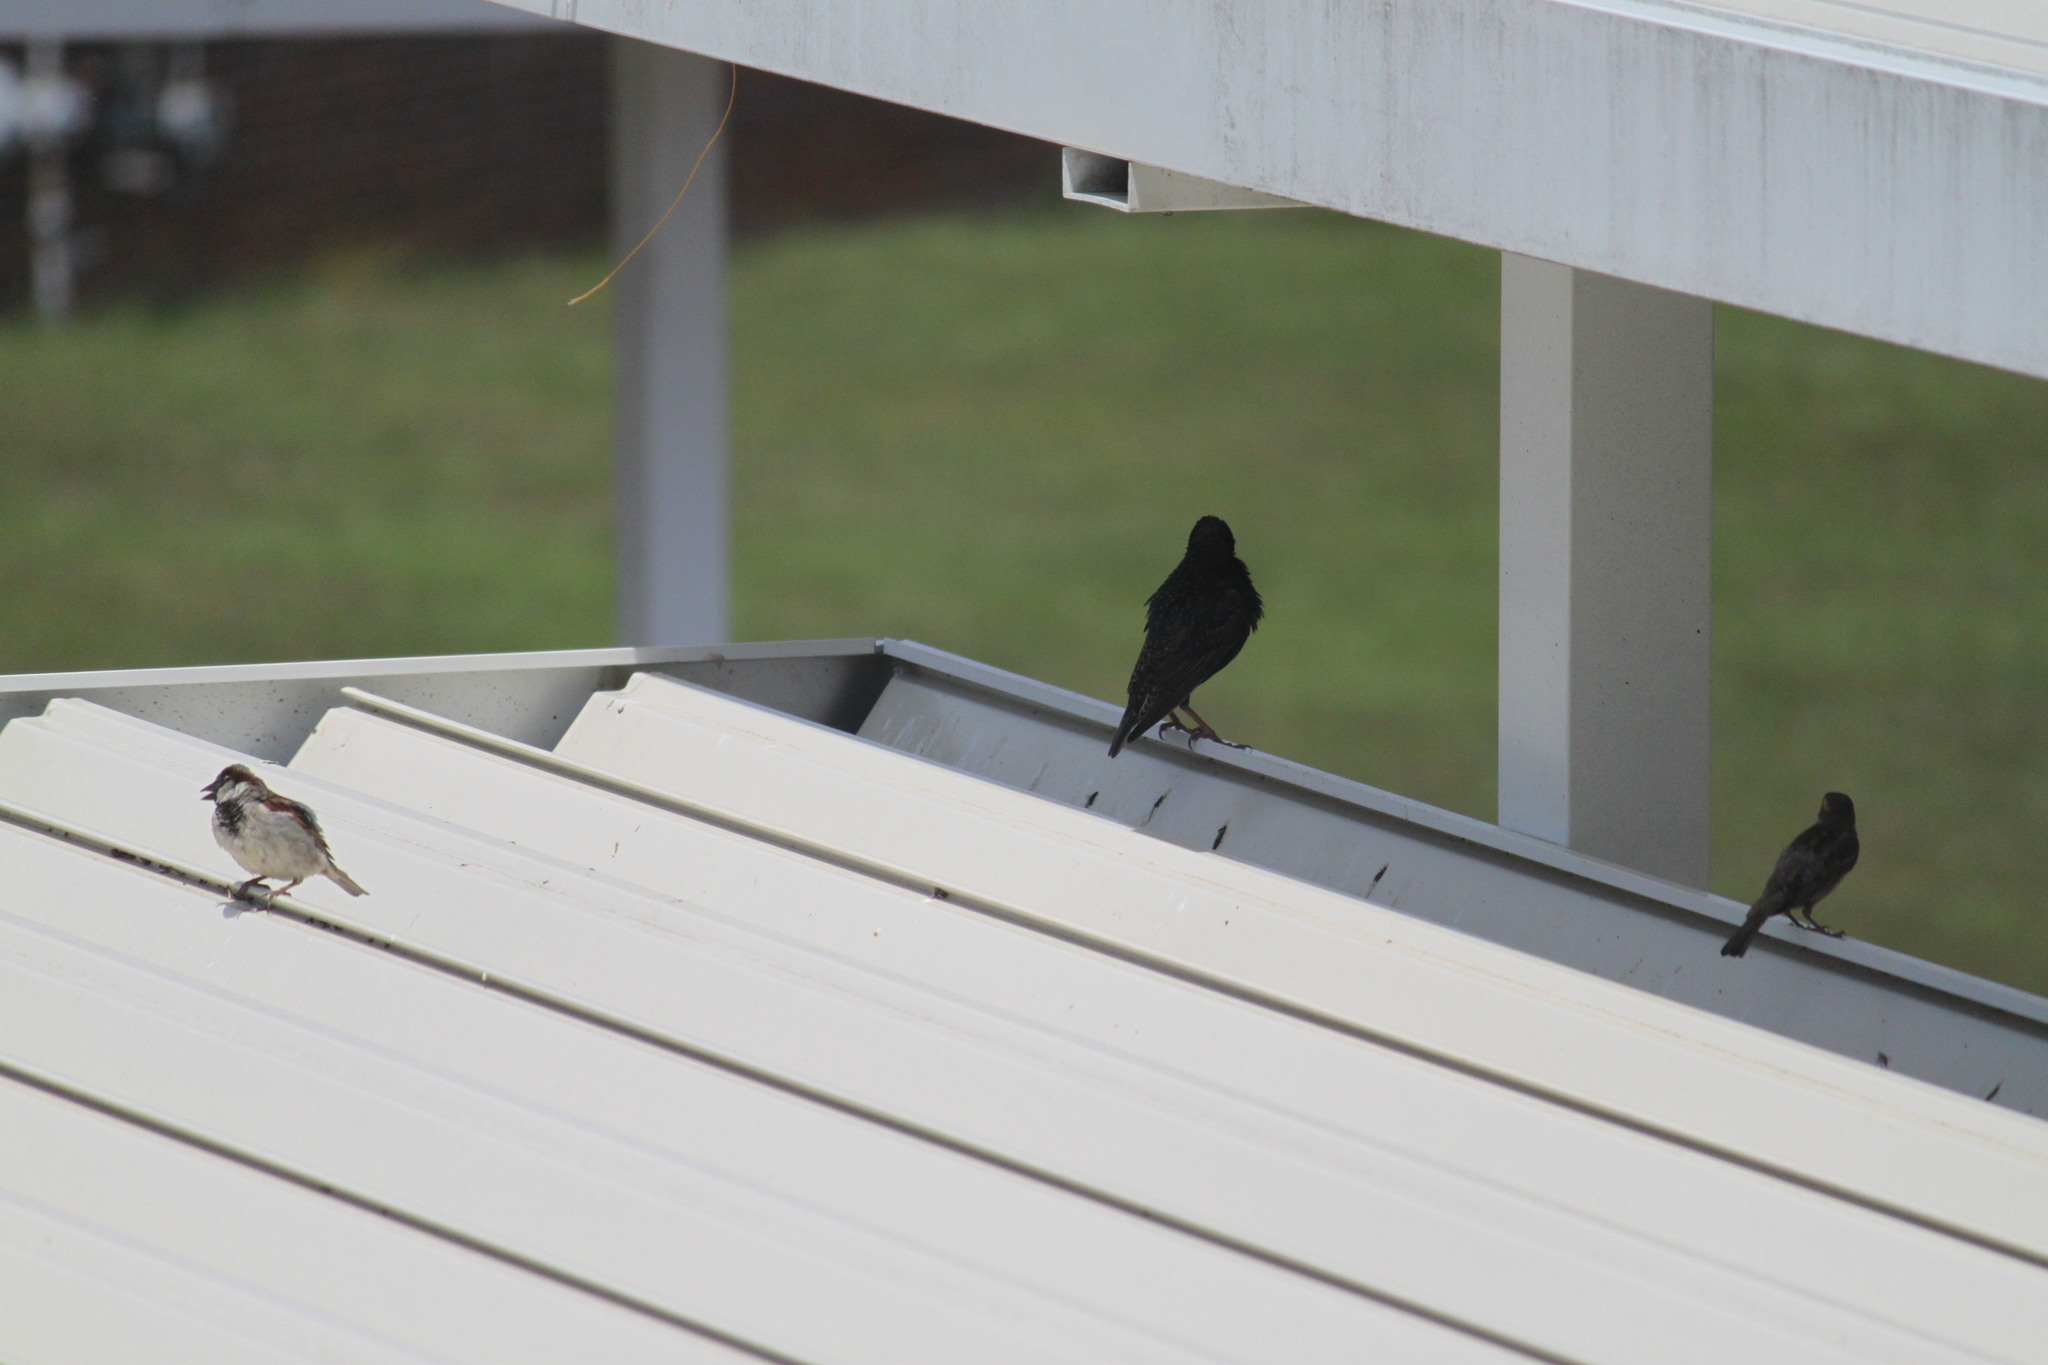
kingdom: Animalia
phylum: Chordata
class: Aves
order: Passeriformes
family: Passeridae
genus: Passer
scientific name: Passer domesticus
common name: House sparrow
